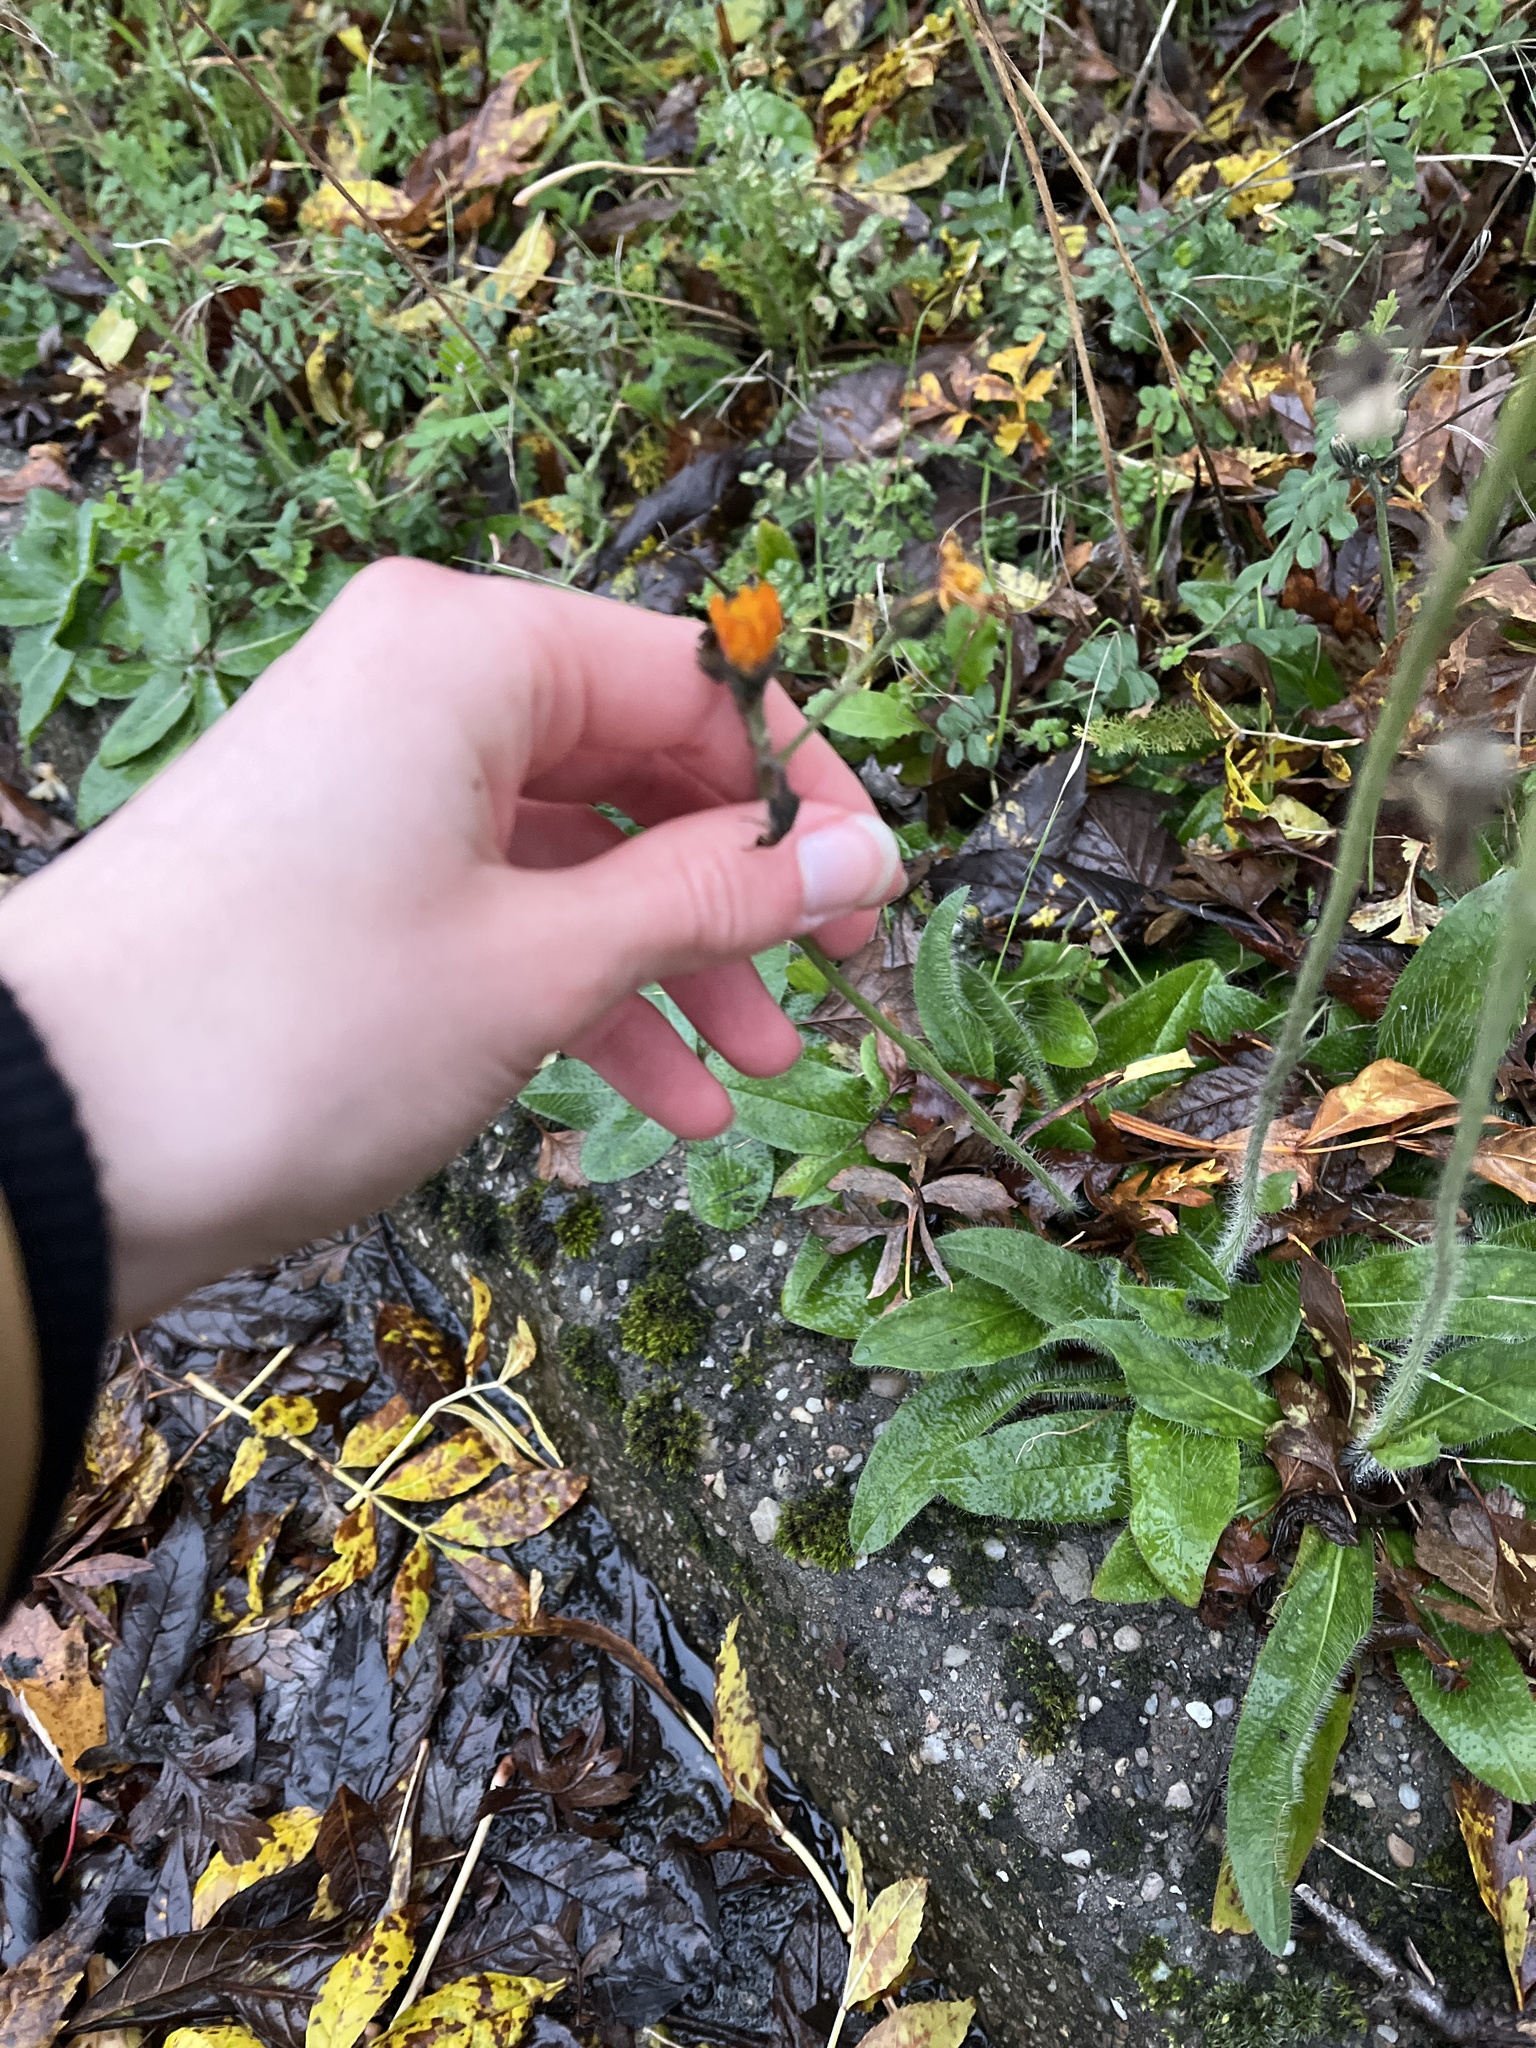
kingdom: Plantae
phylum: Tracheophyta
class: Magnoliopsida
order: Asterales
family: Asteraceae
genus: Pilosella
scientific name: Pilosella aurantiaca
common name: Fox-and-cubs
